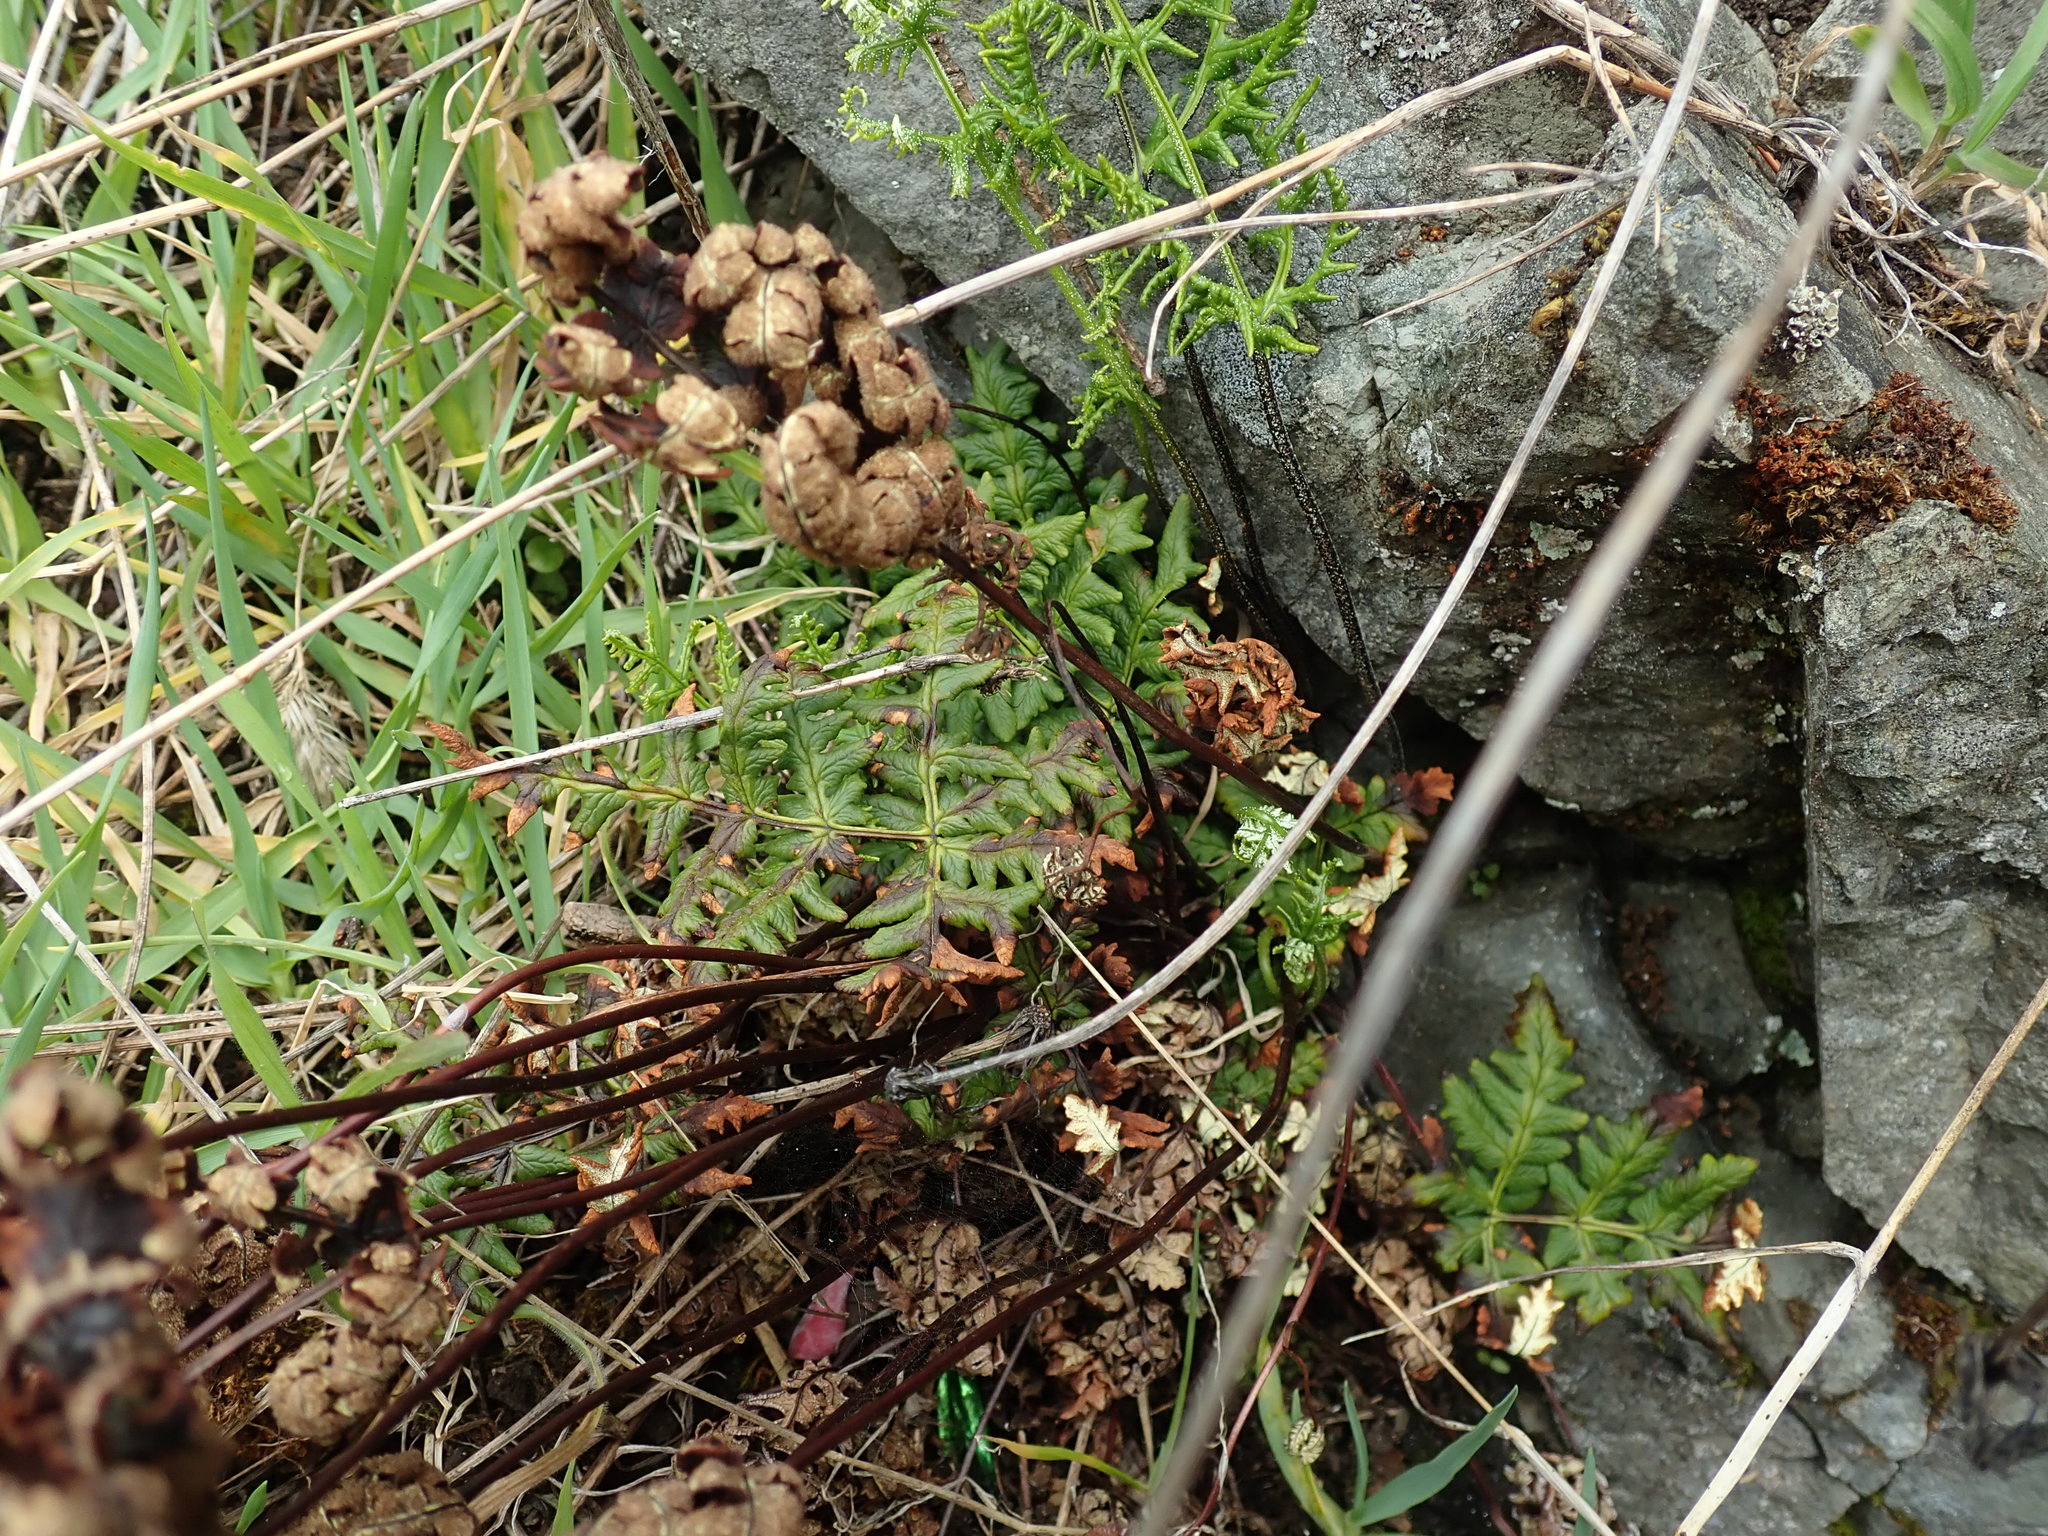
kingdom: Plantae
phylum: Tracheophyta
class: Polypodiopsida
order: Polypodiales
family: Pteridaceae
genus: Pentagramma
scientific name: Pentagramma triangularis
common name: Gold fern
